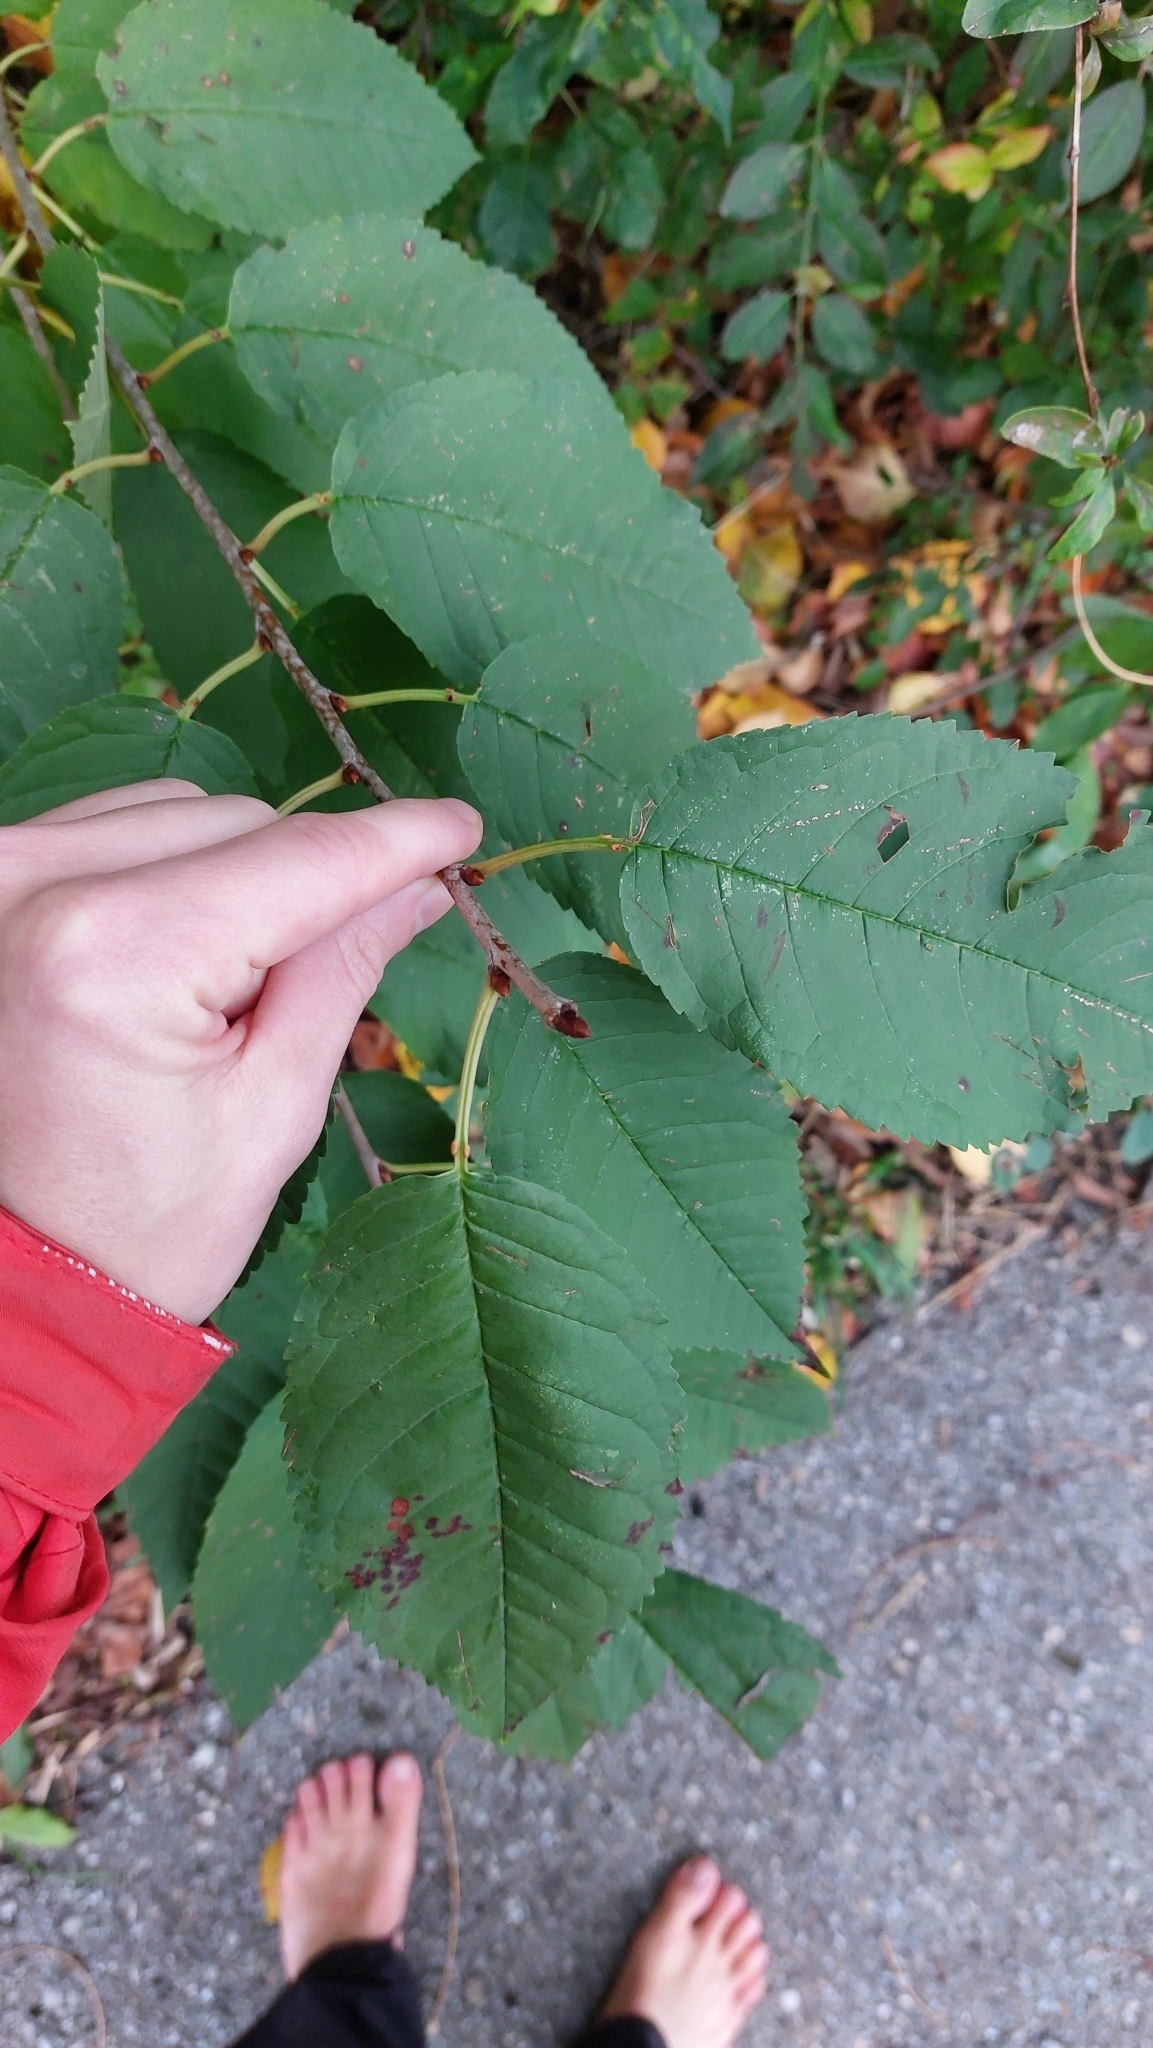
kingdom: Plantae
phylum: Tracheophyta
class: Magnoliopsida
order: Rosales
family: Rosaceae
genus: Prunus
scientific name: Prunus avium
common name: Sweet cherry
